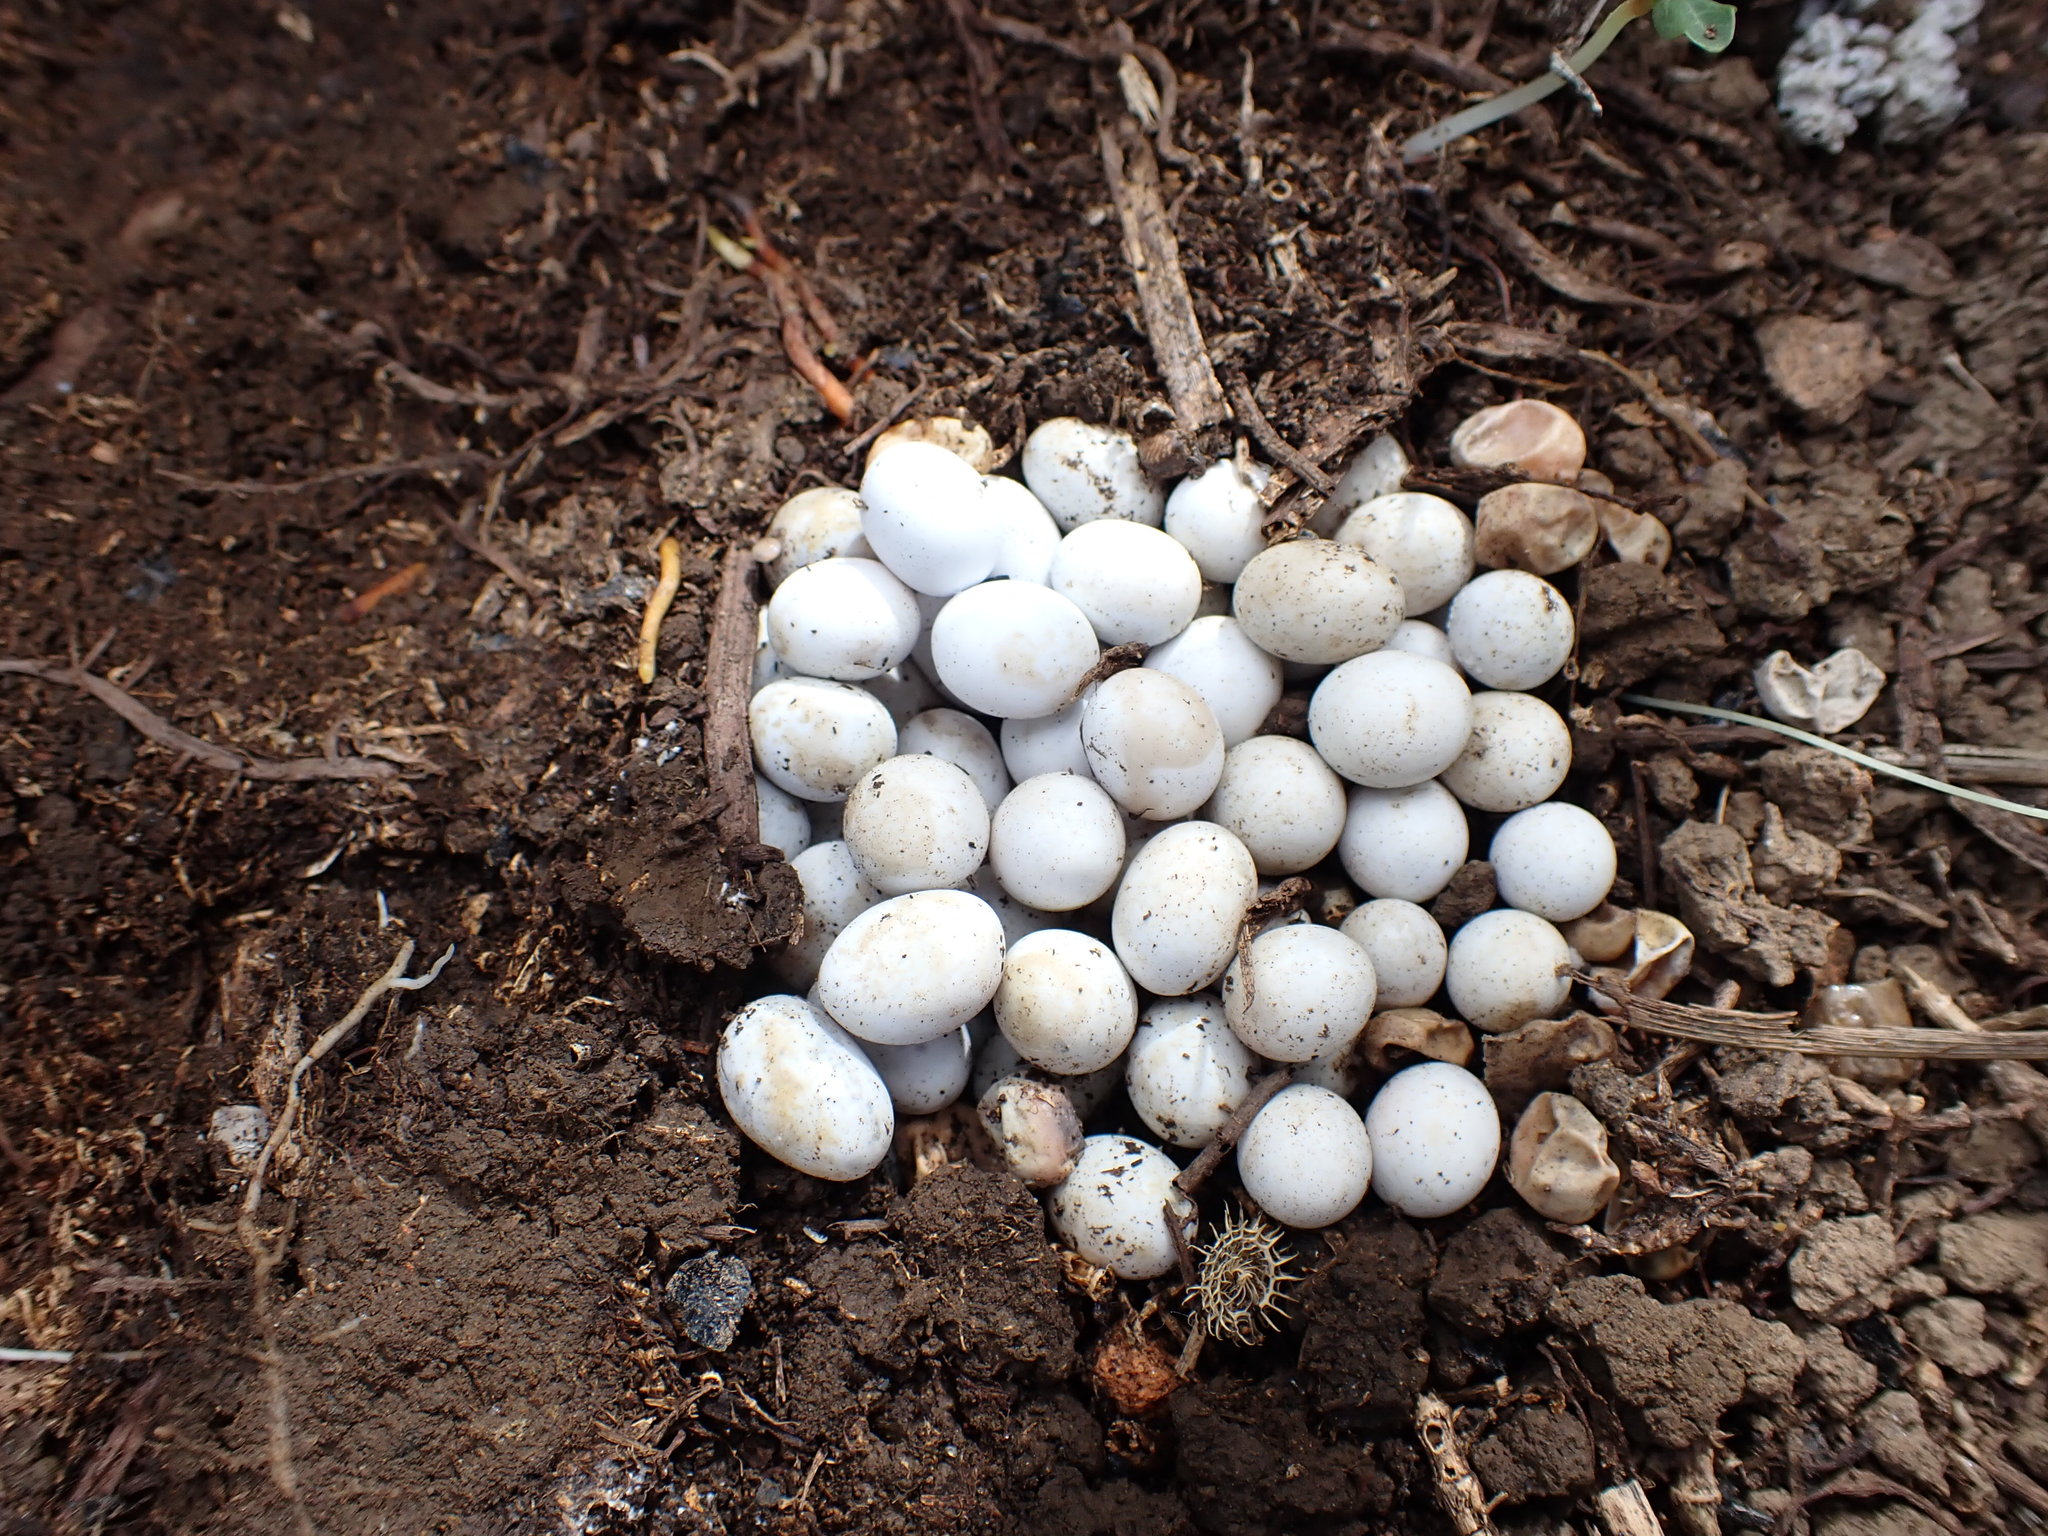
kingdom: Animalia
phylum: Chordata
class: Squamata
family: Scincidae
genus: Lampropholis
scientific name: Lampropholis delicata
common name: Plague skink
